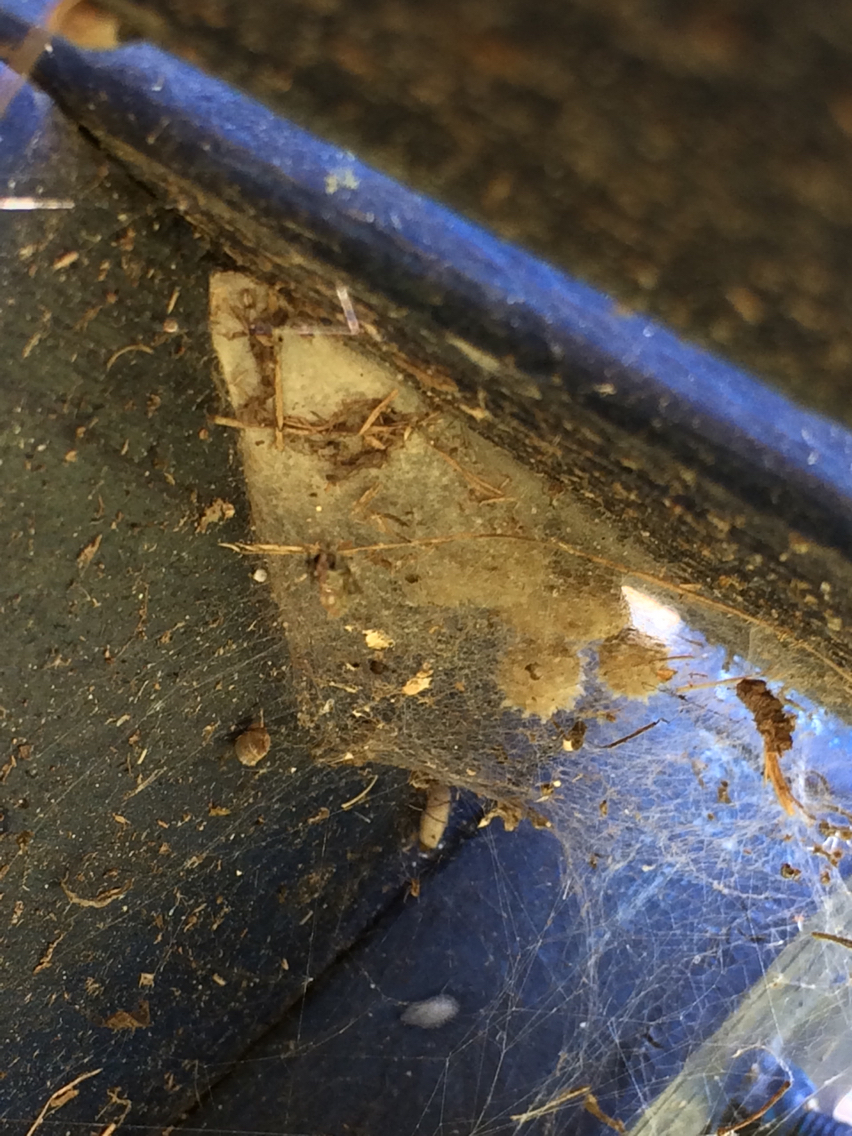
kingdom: Animalia
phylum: Arthropoda
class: Arachnida
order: Araneae
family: Theridiidae
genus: Latrodectus
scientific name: Latrodectus geometricus
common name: Brown widow spider
